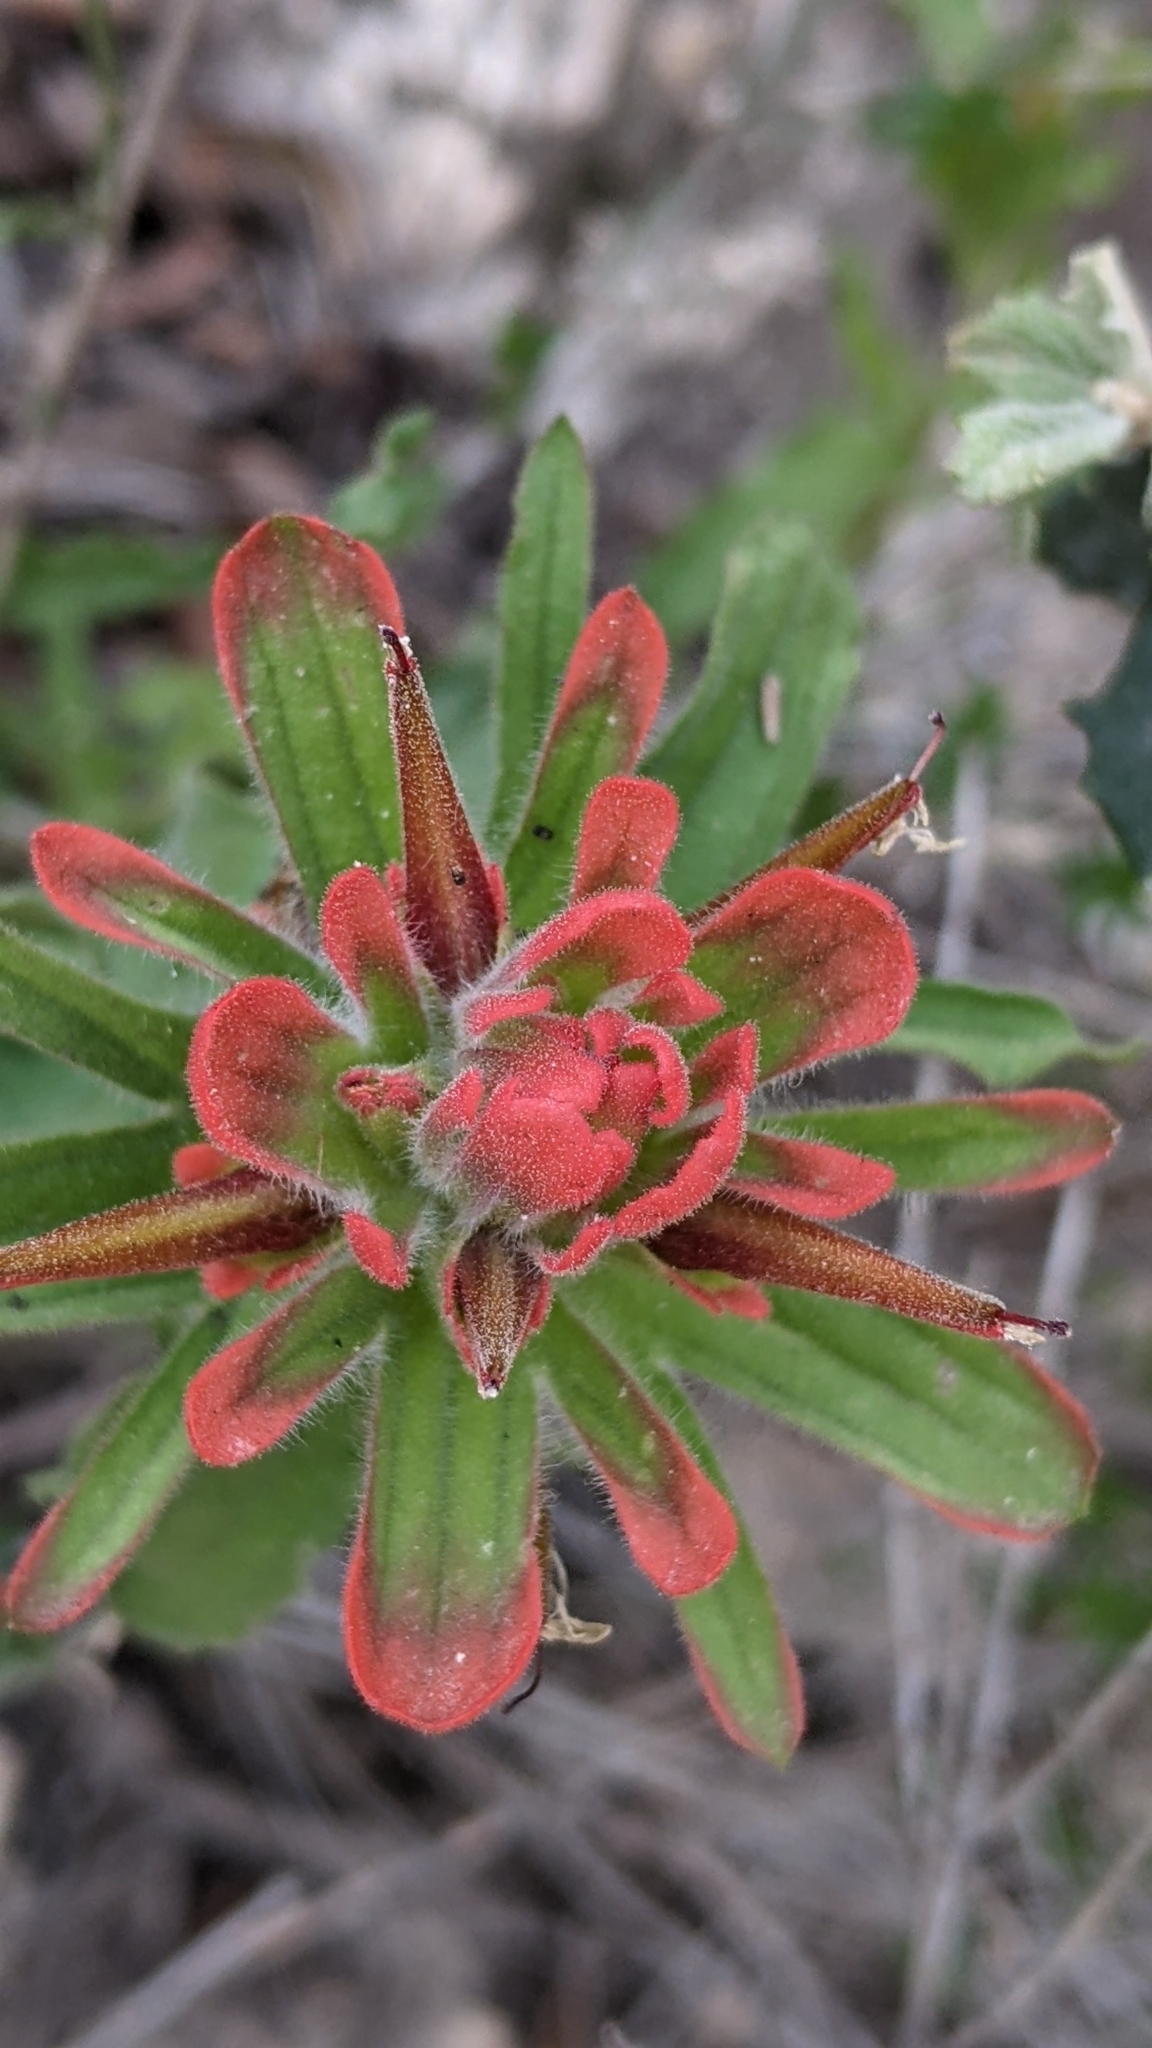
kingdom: Plantae
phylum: Tracheophyta
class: Magnoliopsida
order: Lamiales
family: Orobanchaceae
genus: Castilleja
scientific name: Castilleja martini
